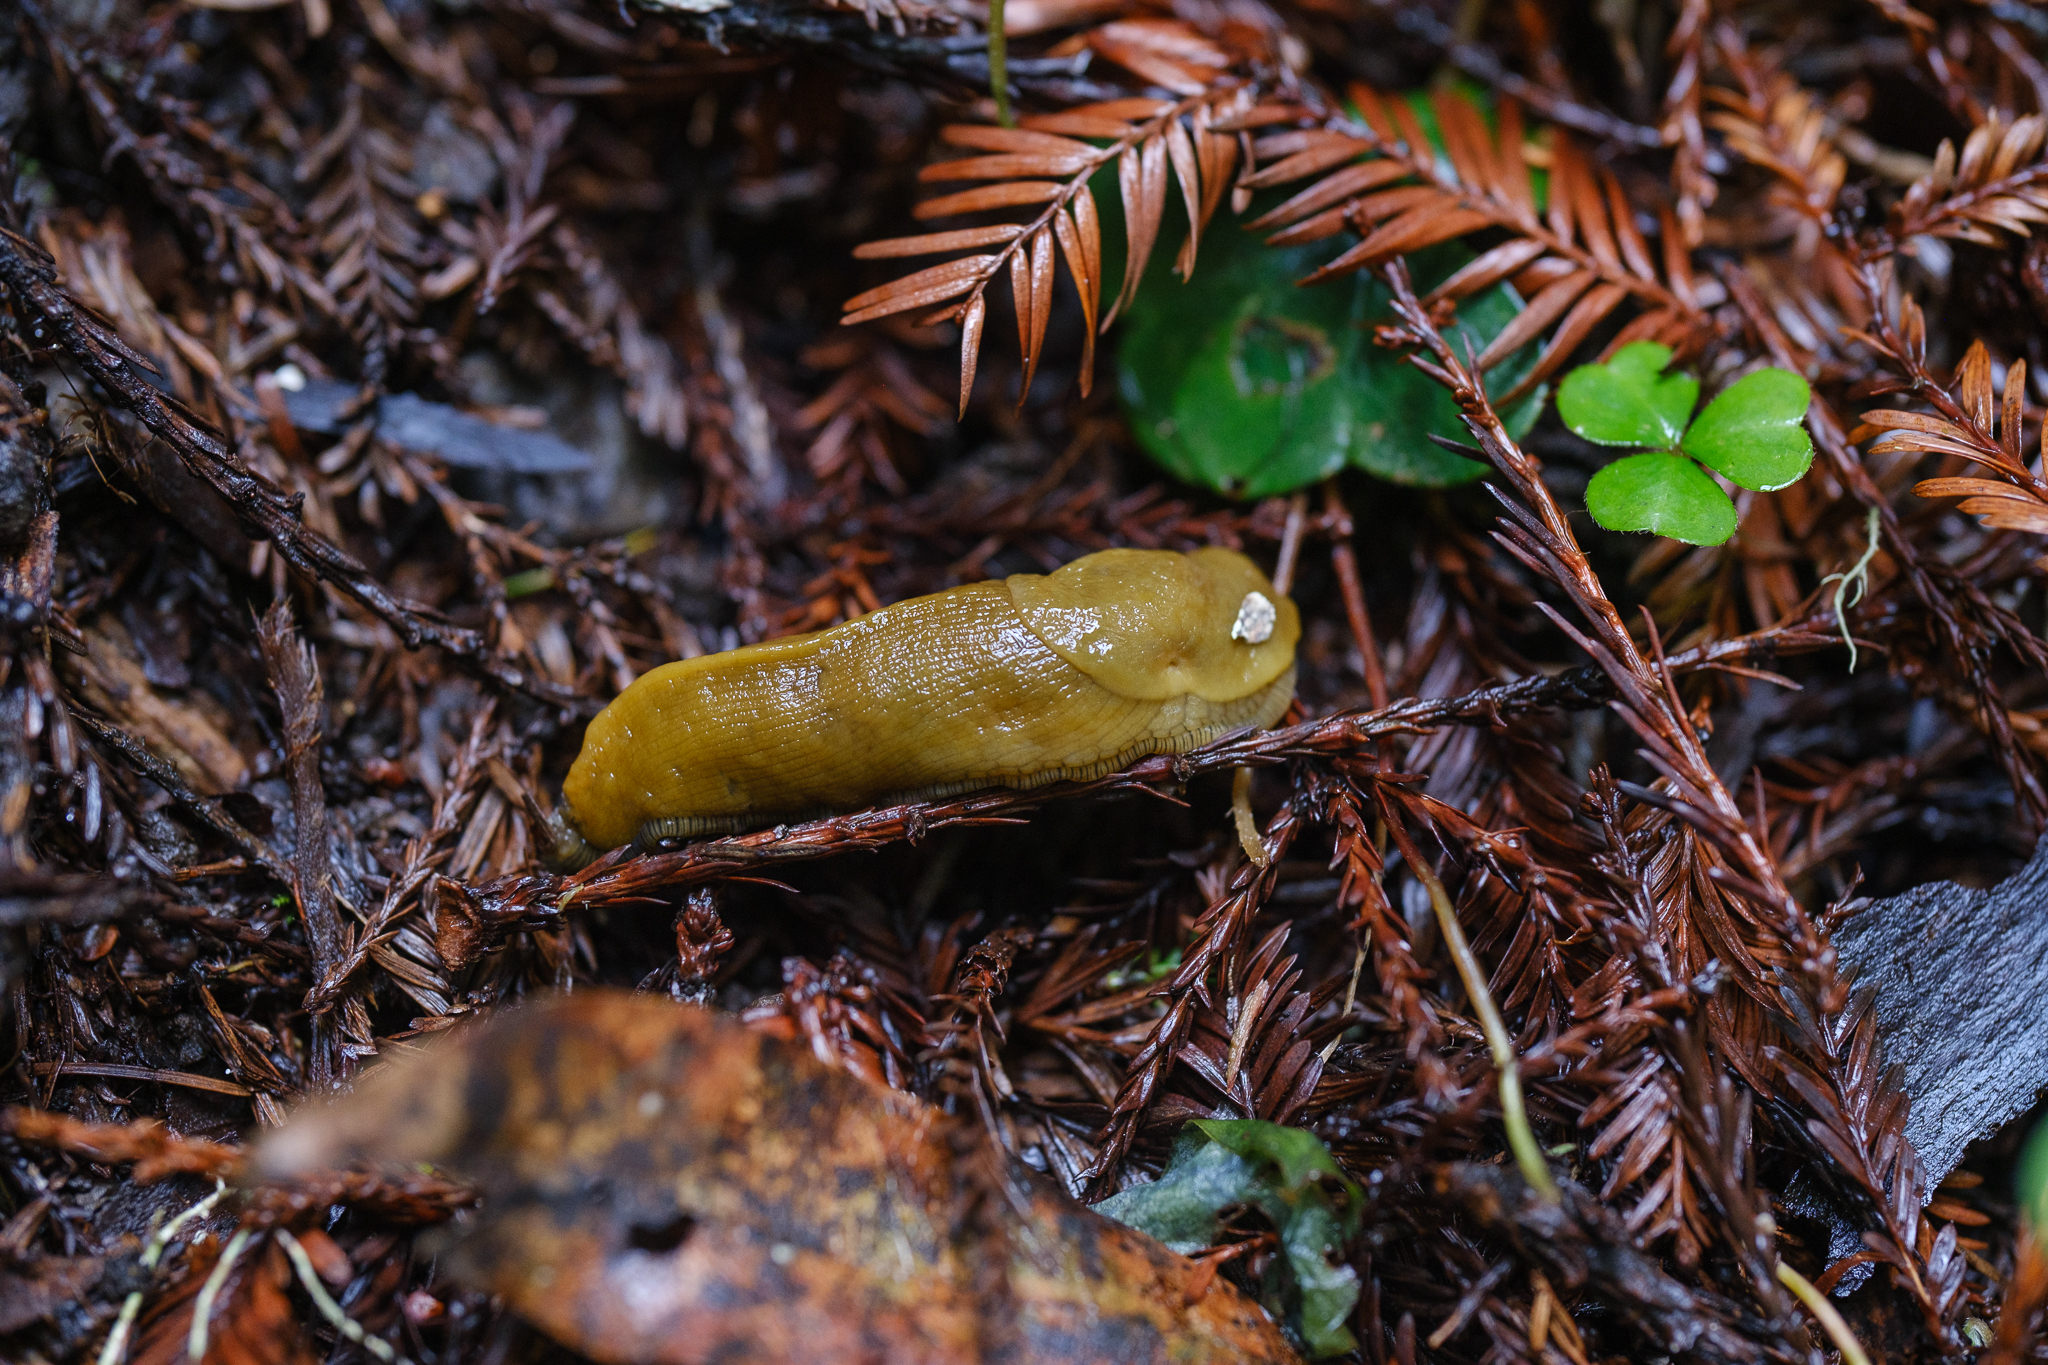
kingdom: Animalia
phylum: Mollusca
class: Gastropoda
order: Stylommatophora
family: Ariolimacidae
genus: Ariolimax
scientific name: Ariolimax buttoni
